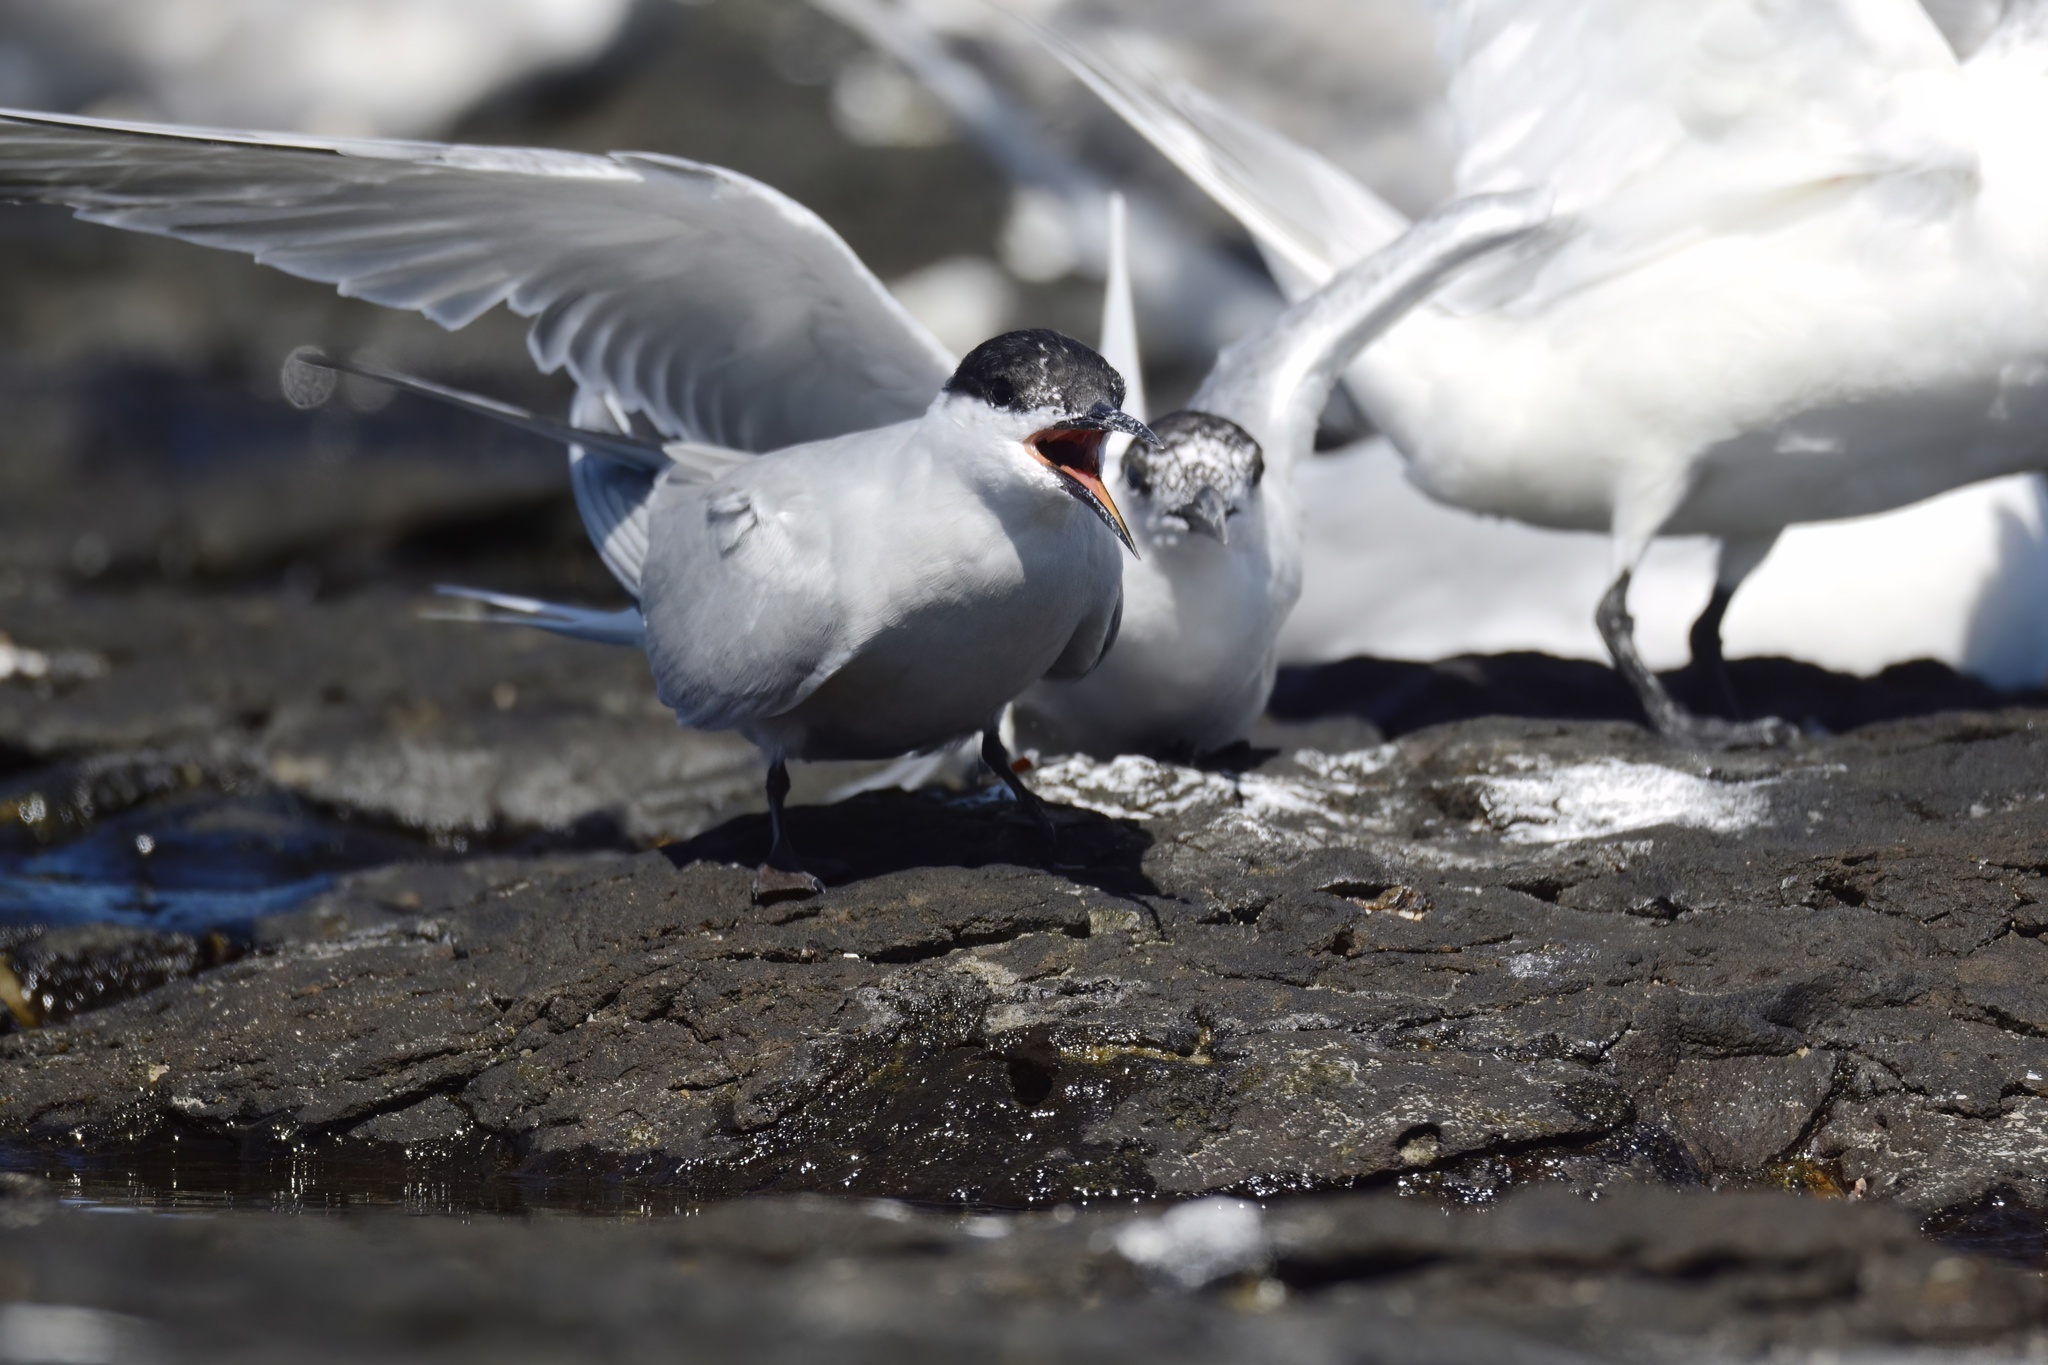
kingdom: Animalia
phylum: Chordata
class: Aves
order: Charadriiformes
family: Laridae
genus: Sterna
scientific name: Sterna hirundo
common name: Common tern
